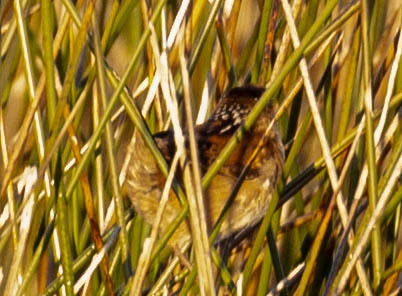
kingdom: Animalia
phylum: Chordata
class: Aves
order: Passeriformes
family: Troglodytidae
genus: Cistothorus
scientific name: Cistothorus palustris
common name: Marsh wren
